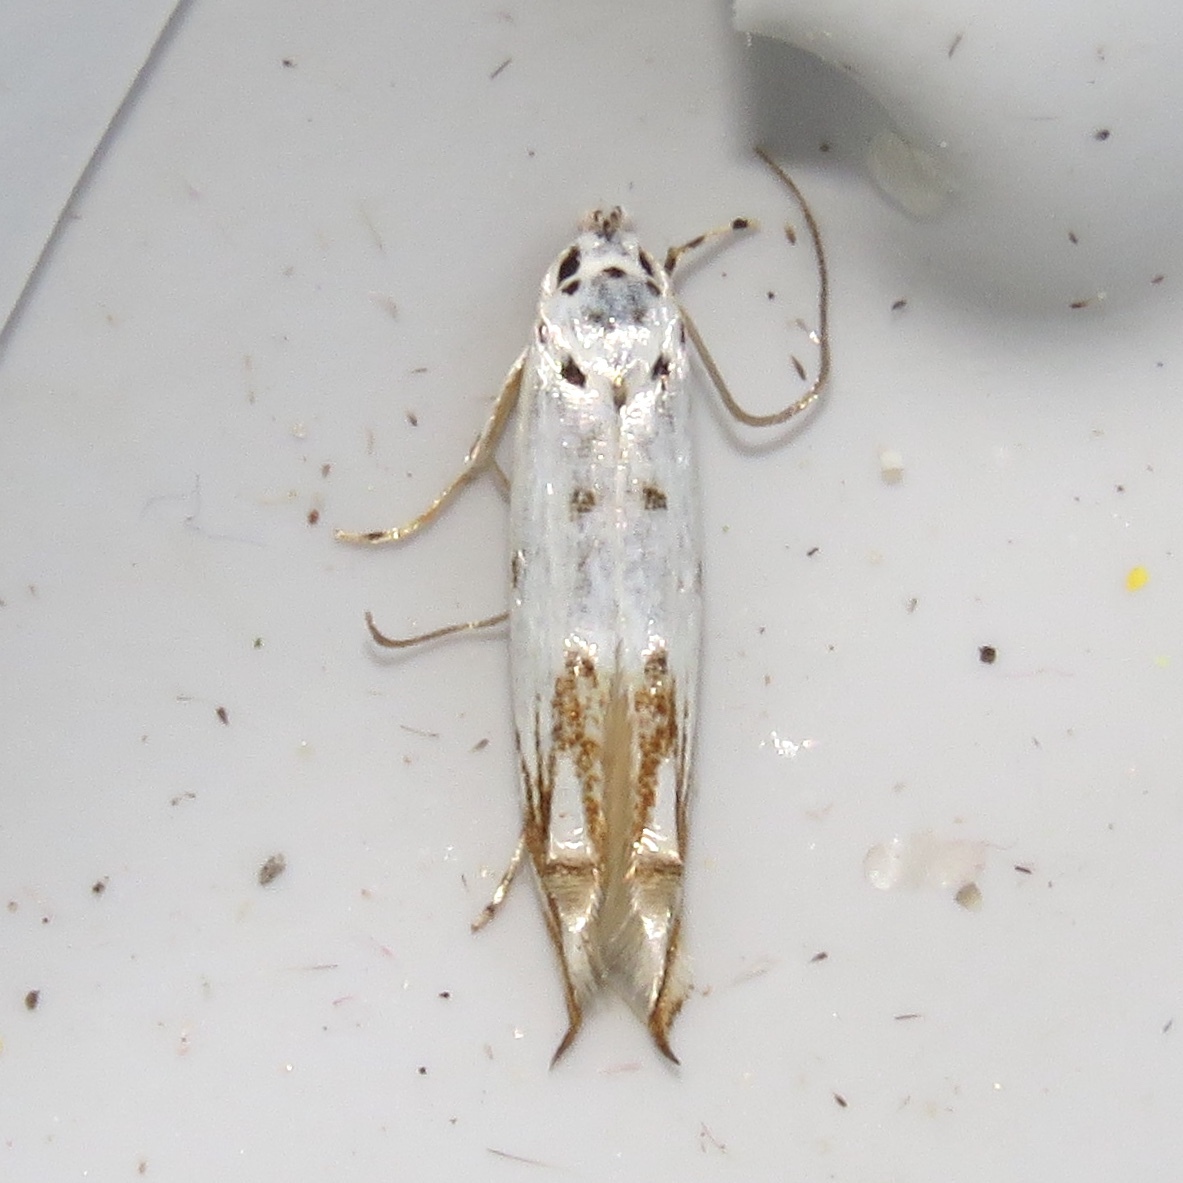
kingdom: Animalia
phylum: Arthropoda
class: Insecta
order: Lepidoptera
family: Momphidae
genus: Mompha
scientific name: Mompha eloisella
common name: Red-streaked mompha moth
